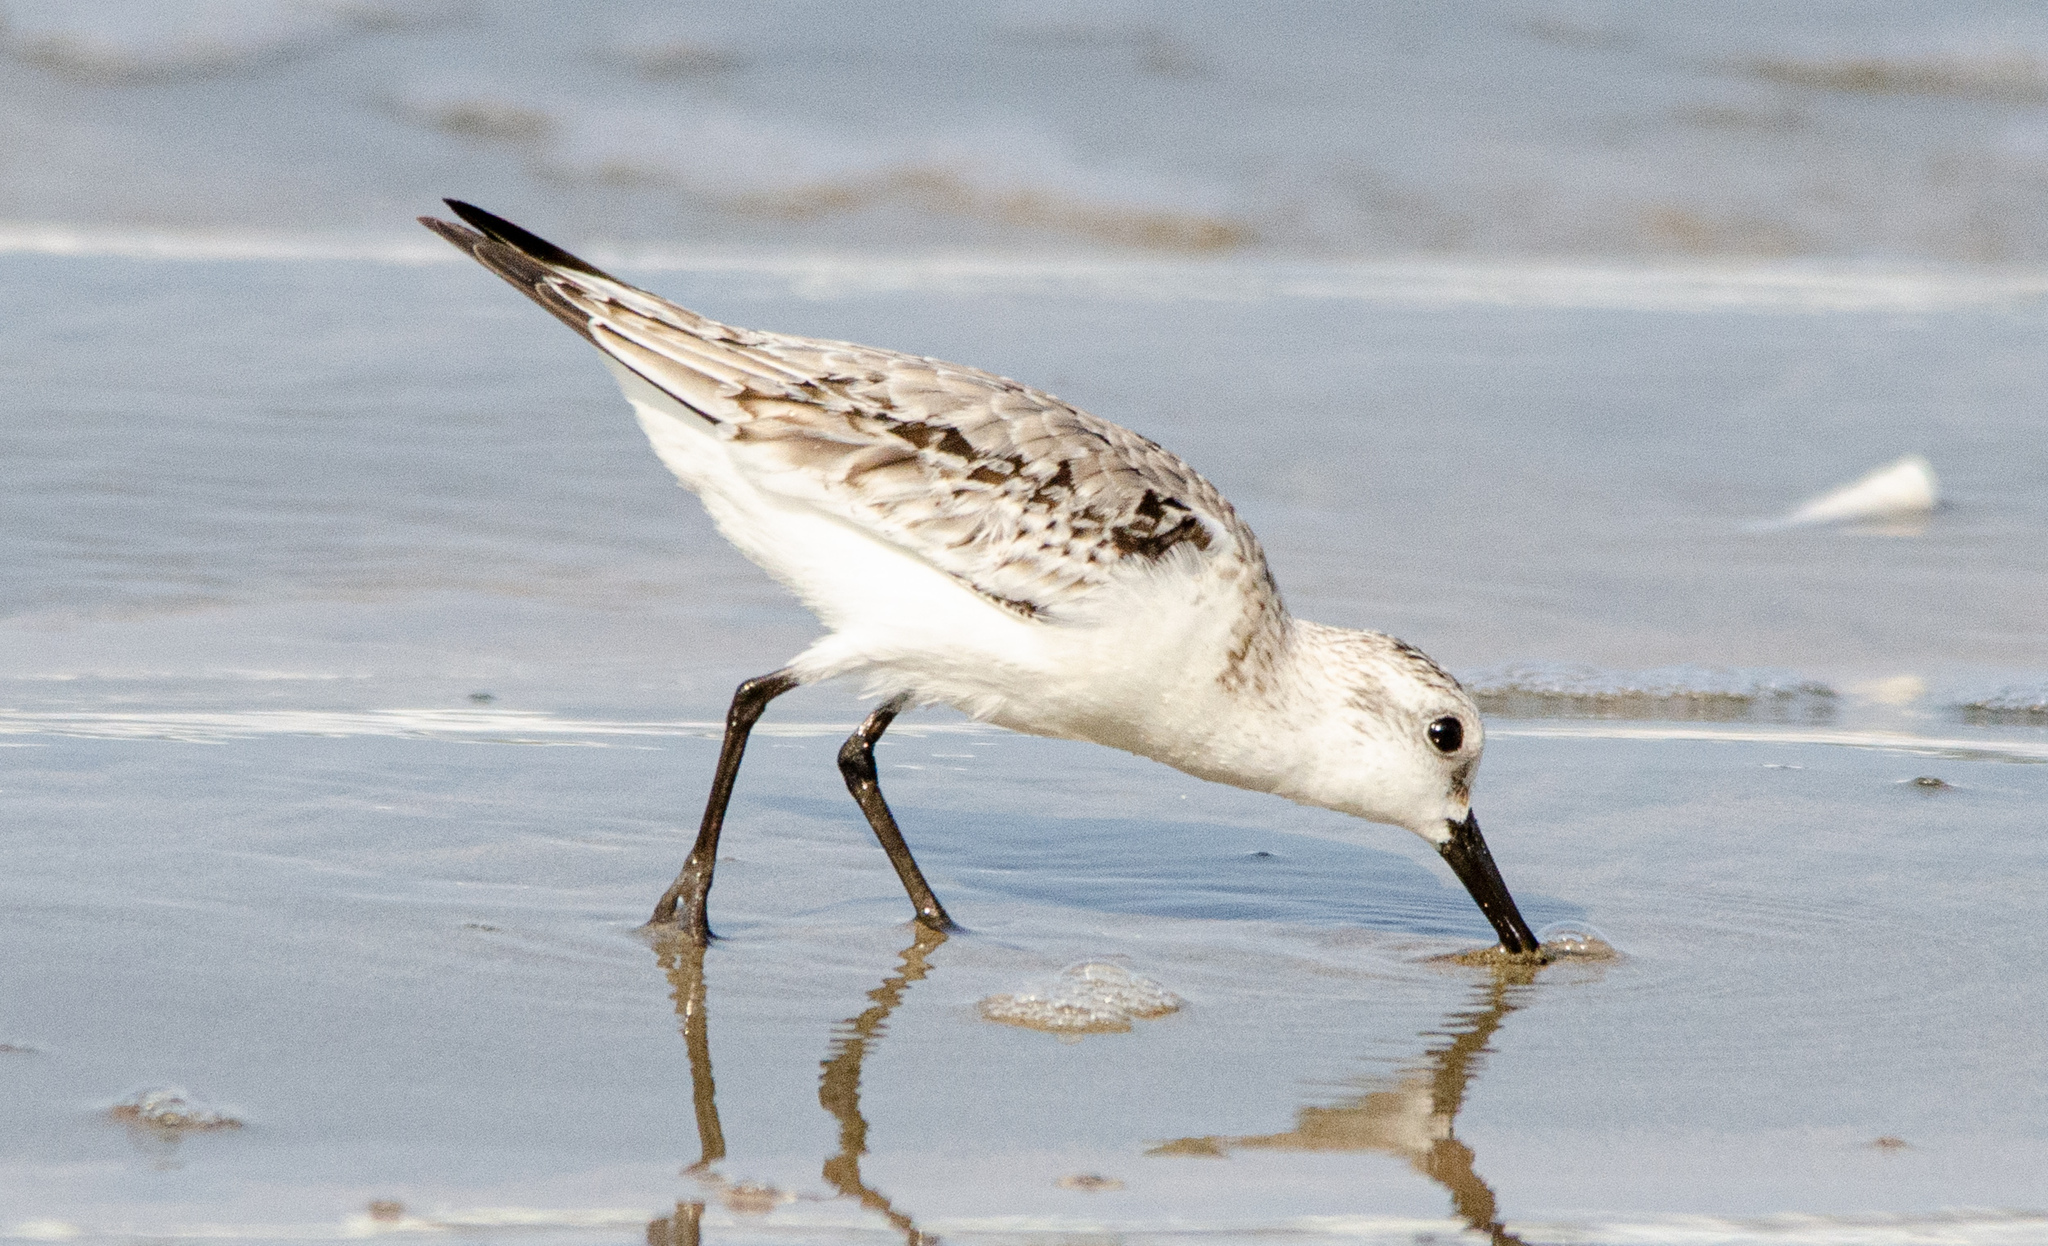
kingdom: Animalia
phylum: Chordata
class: Aves
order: Charadriiformes
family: Scolopacidae
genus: Calidris
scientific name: Calidris alba
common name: Sanderling
